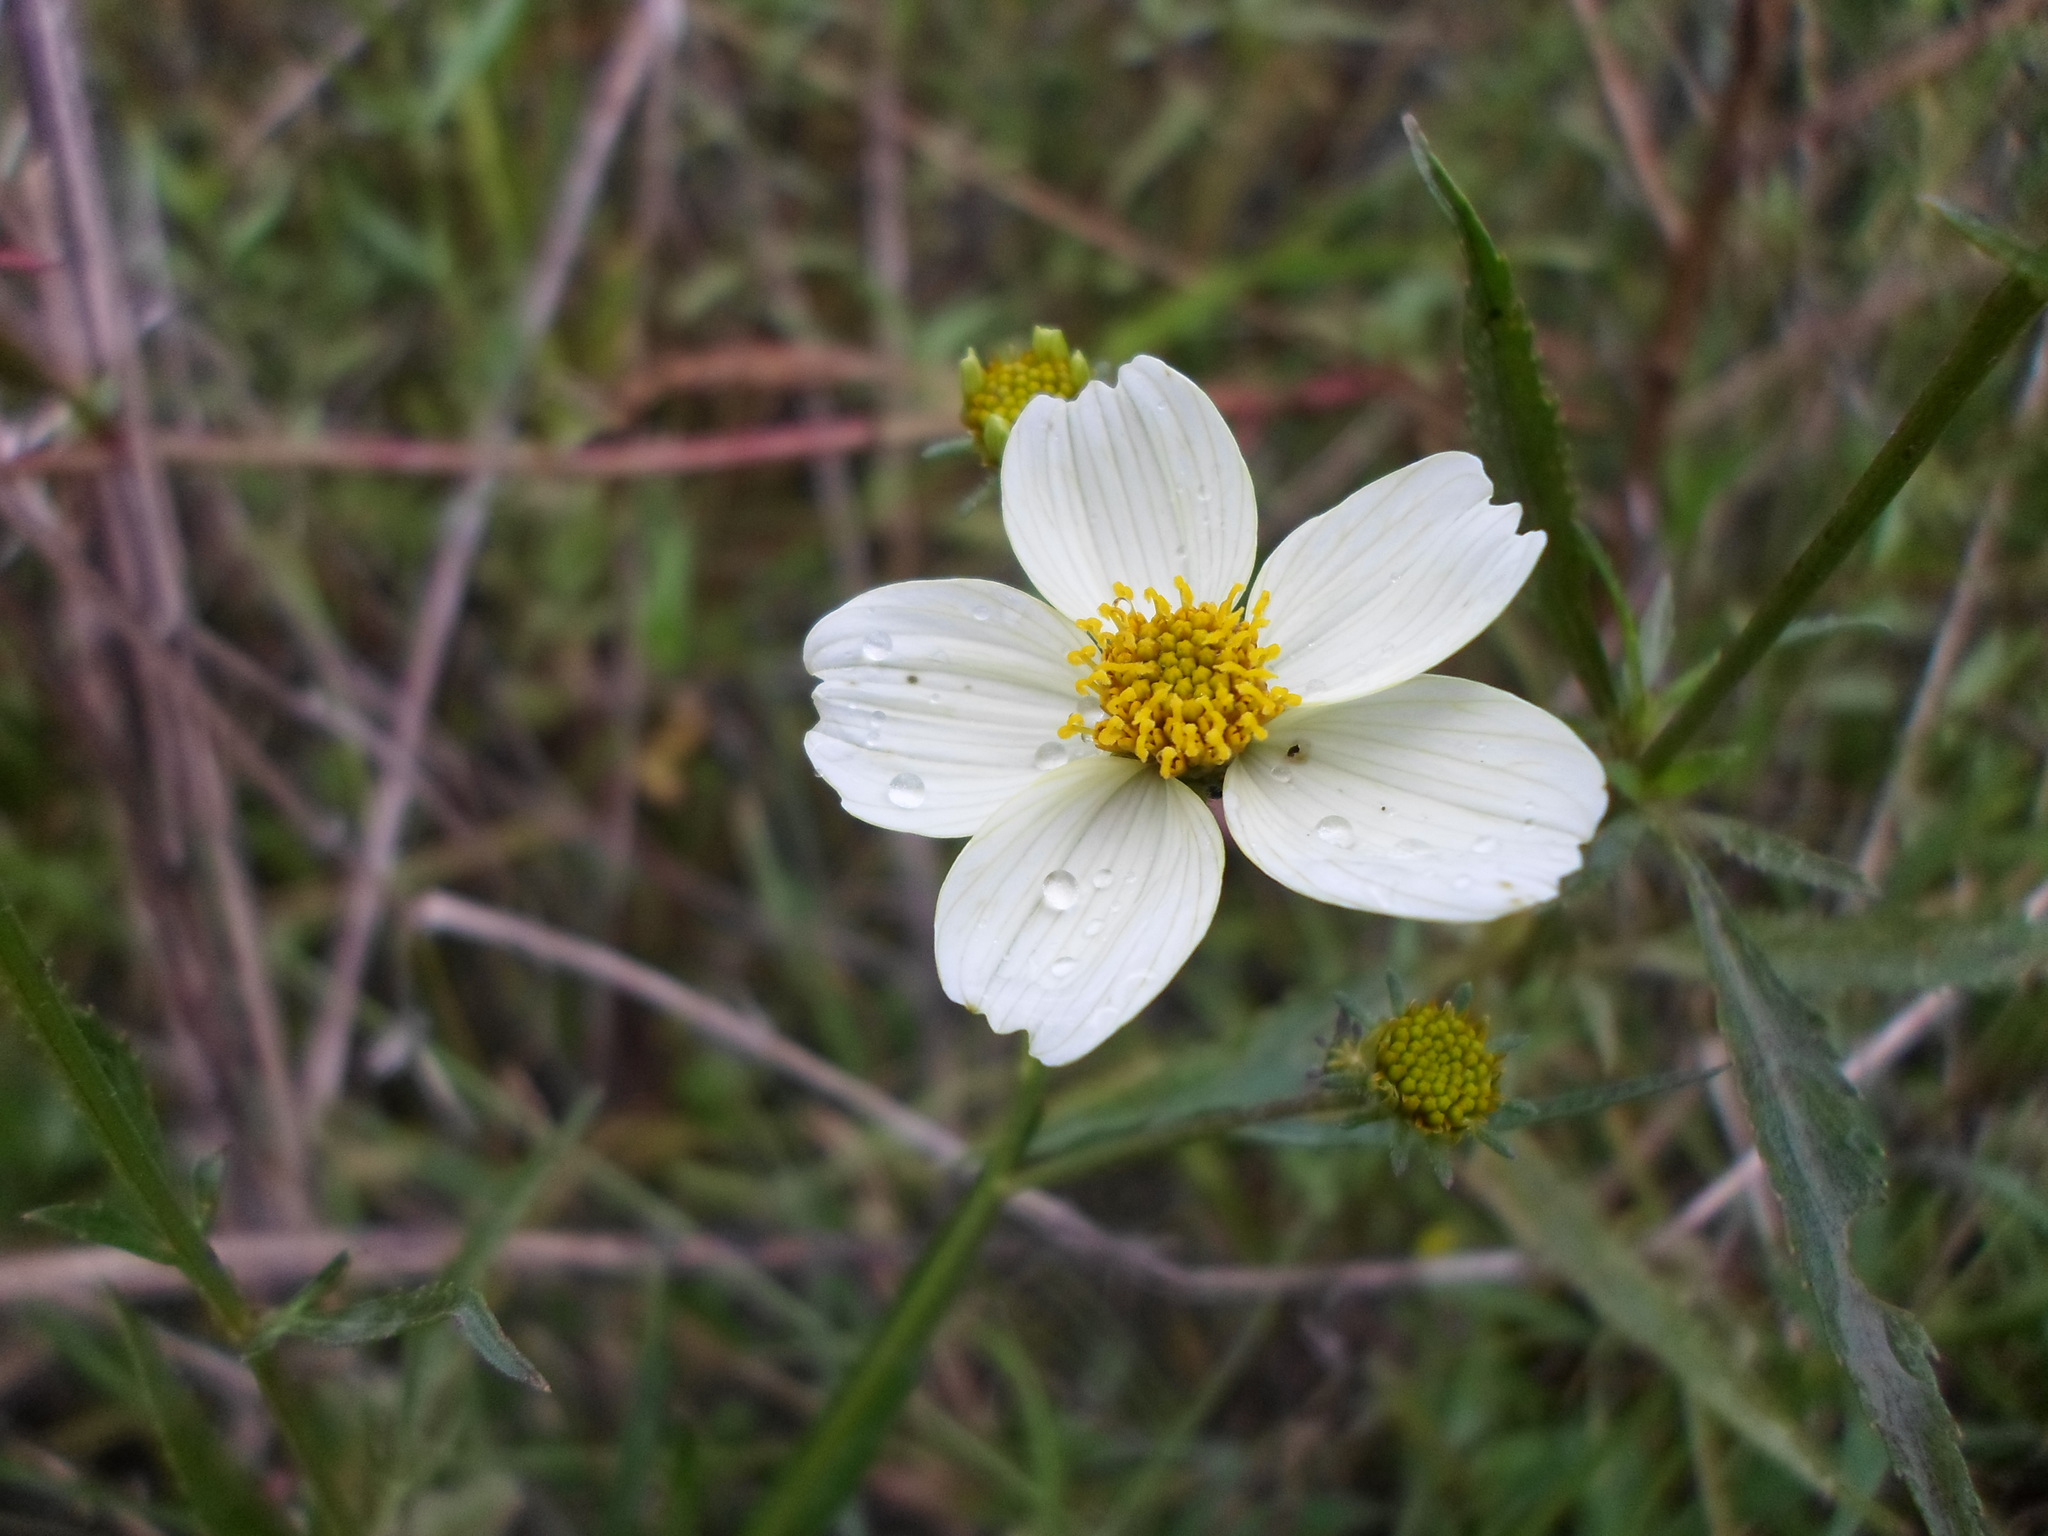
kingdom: Plantae
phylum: Tracheophyta
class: Magnoliopsida
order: Asterales
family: Asteraceae
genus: Bidens
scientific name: Bidens aurea
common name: Arizona beggar-ticks
